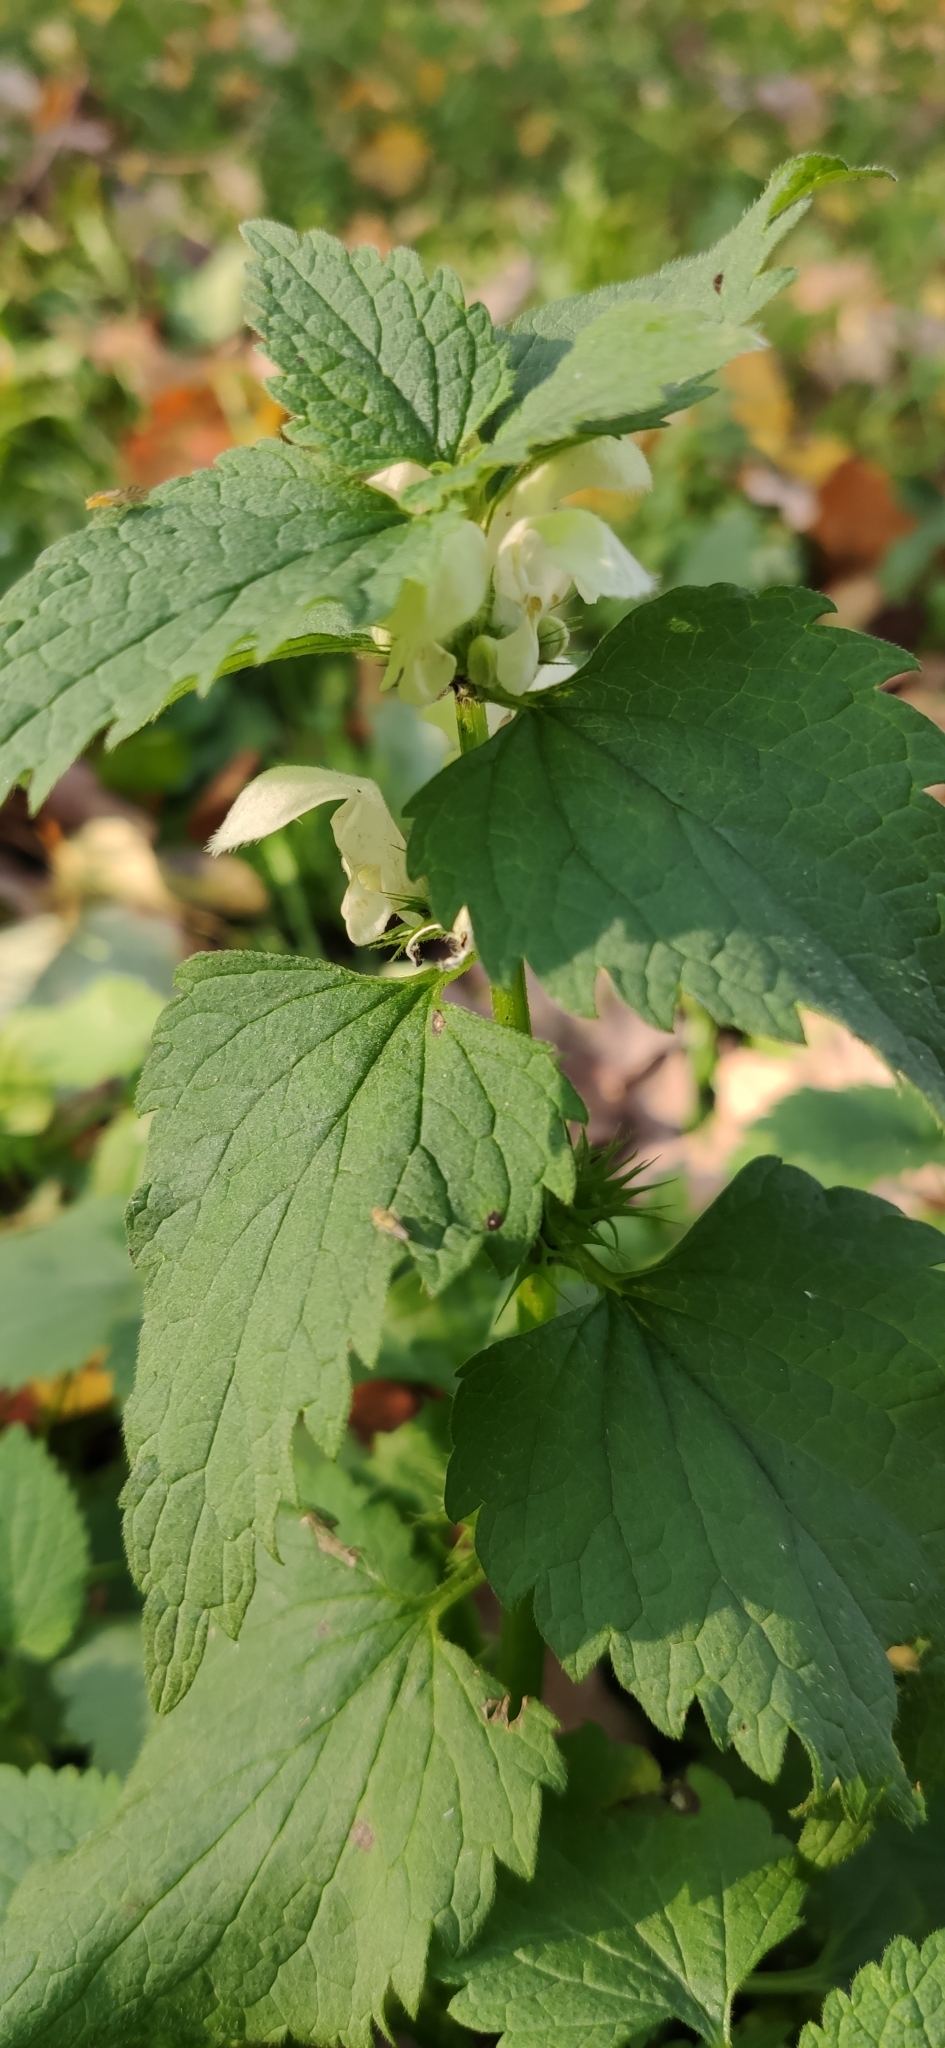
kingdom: Plantae
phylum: Tracheophyta
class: Magnoliopsida
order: Lamiales
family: Lamiaceae
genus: Lamium
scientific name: Lamium album
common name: White dead-nettle
